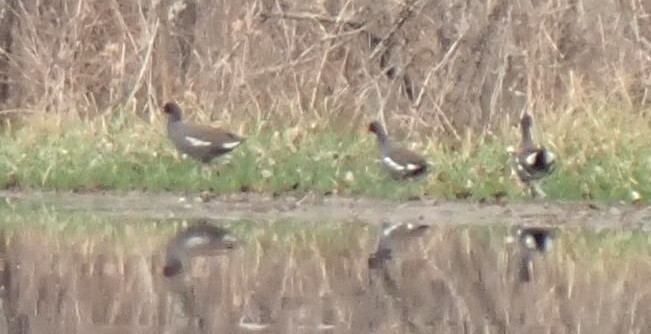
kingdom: Animalia
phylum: Chordata
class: Aves
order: Gruiformes
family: Rallidae
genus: Gallinula
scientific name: Gallinula chloropus
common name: Common moorhen
